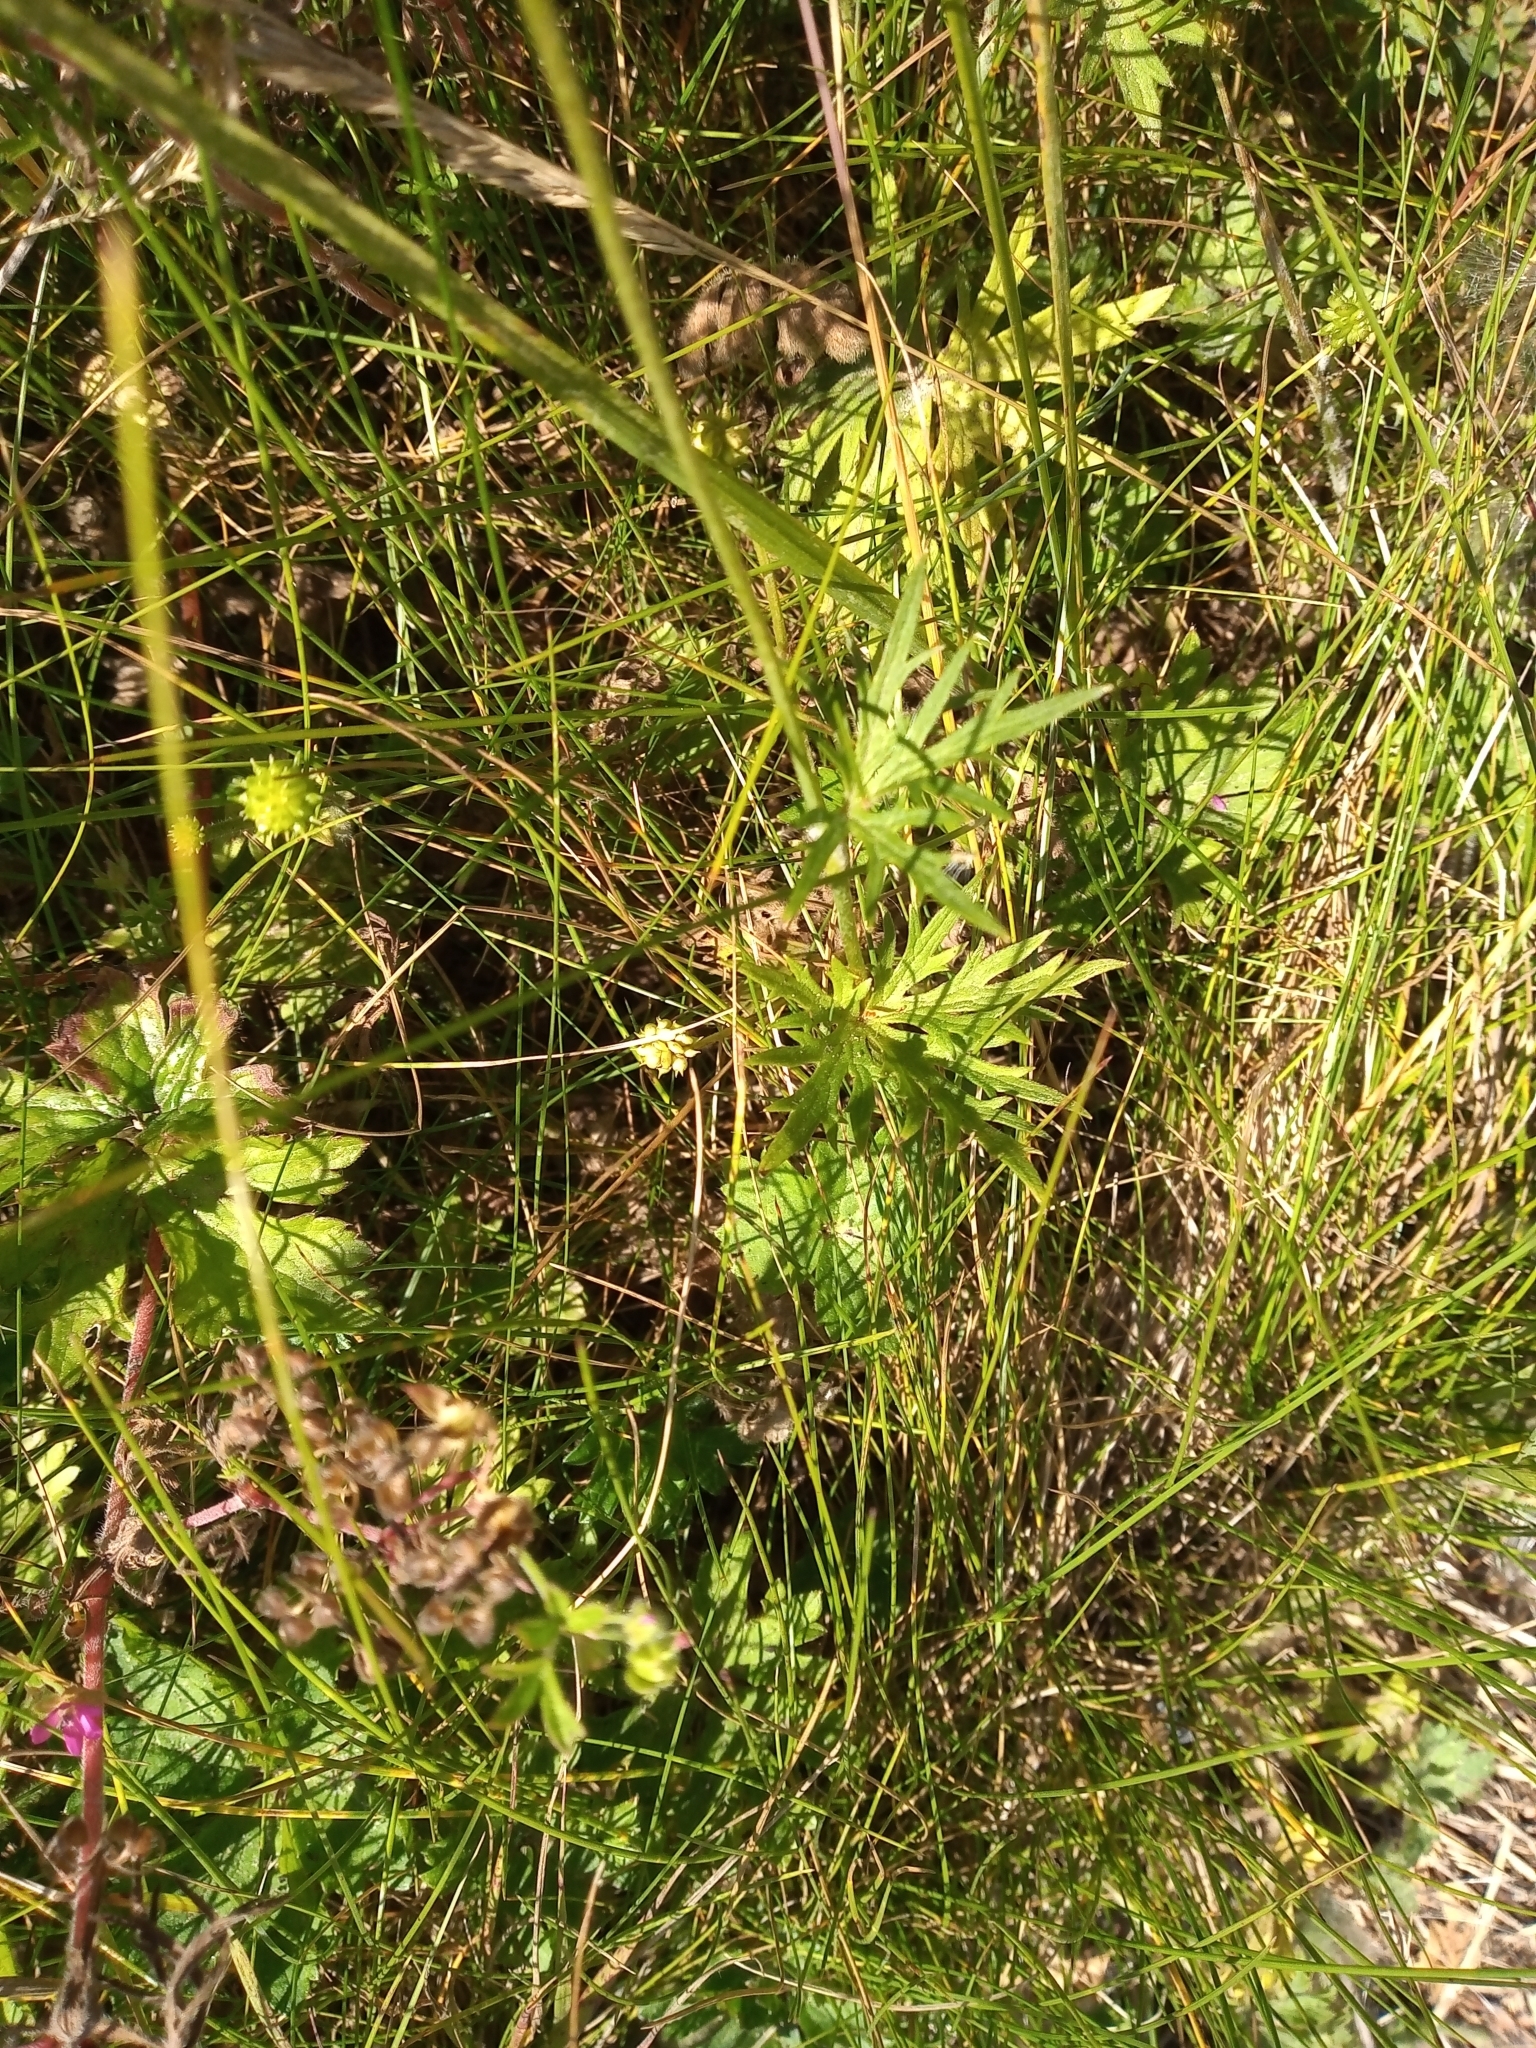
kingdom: Plantae
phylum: Tracheophyta
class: Magnoliopsida
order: Ranunculales
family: Ranunculaceae
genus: Ranunculus
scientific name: Ranunculus acris
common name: Meadow buttercup
